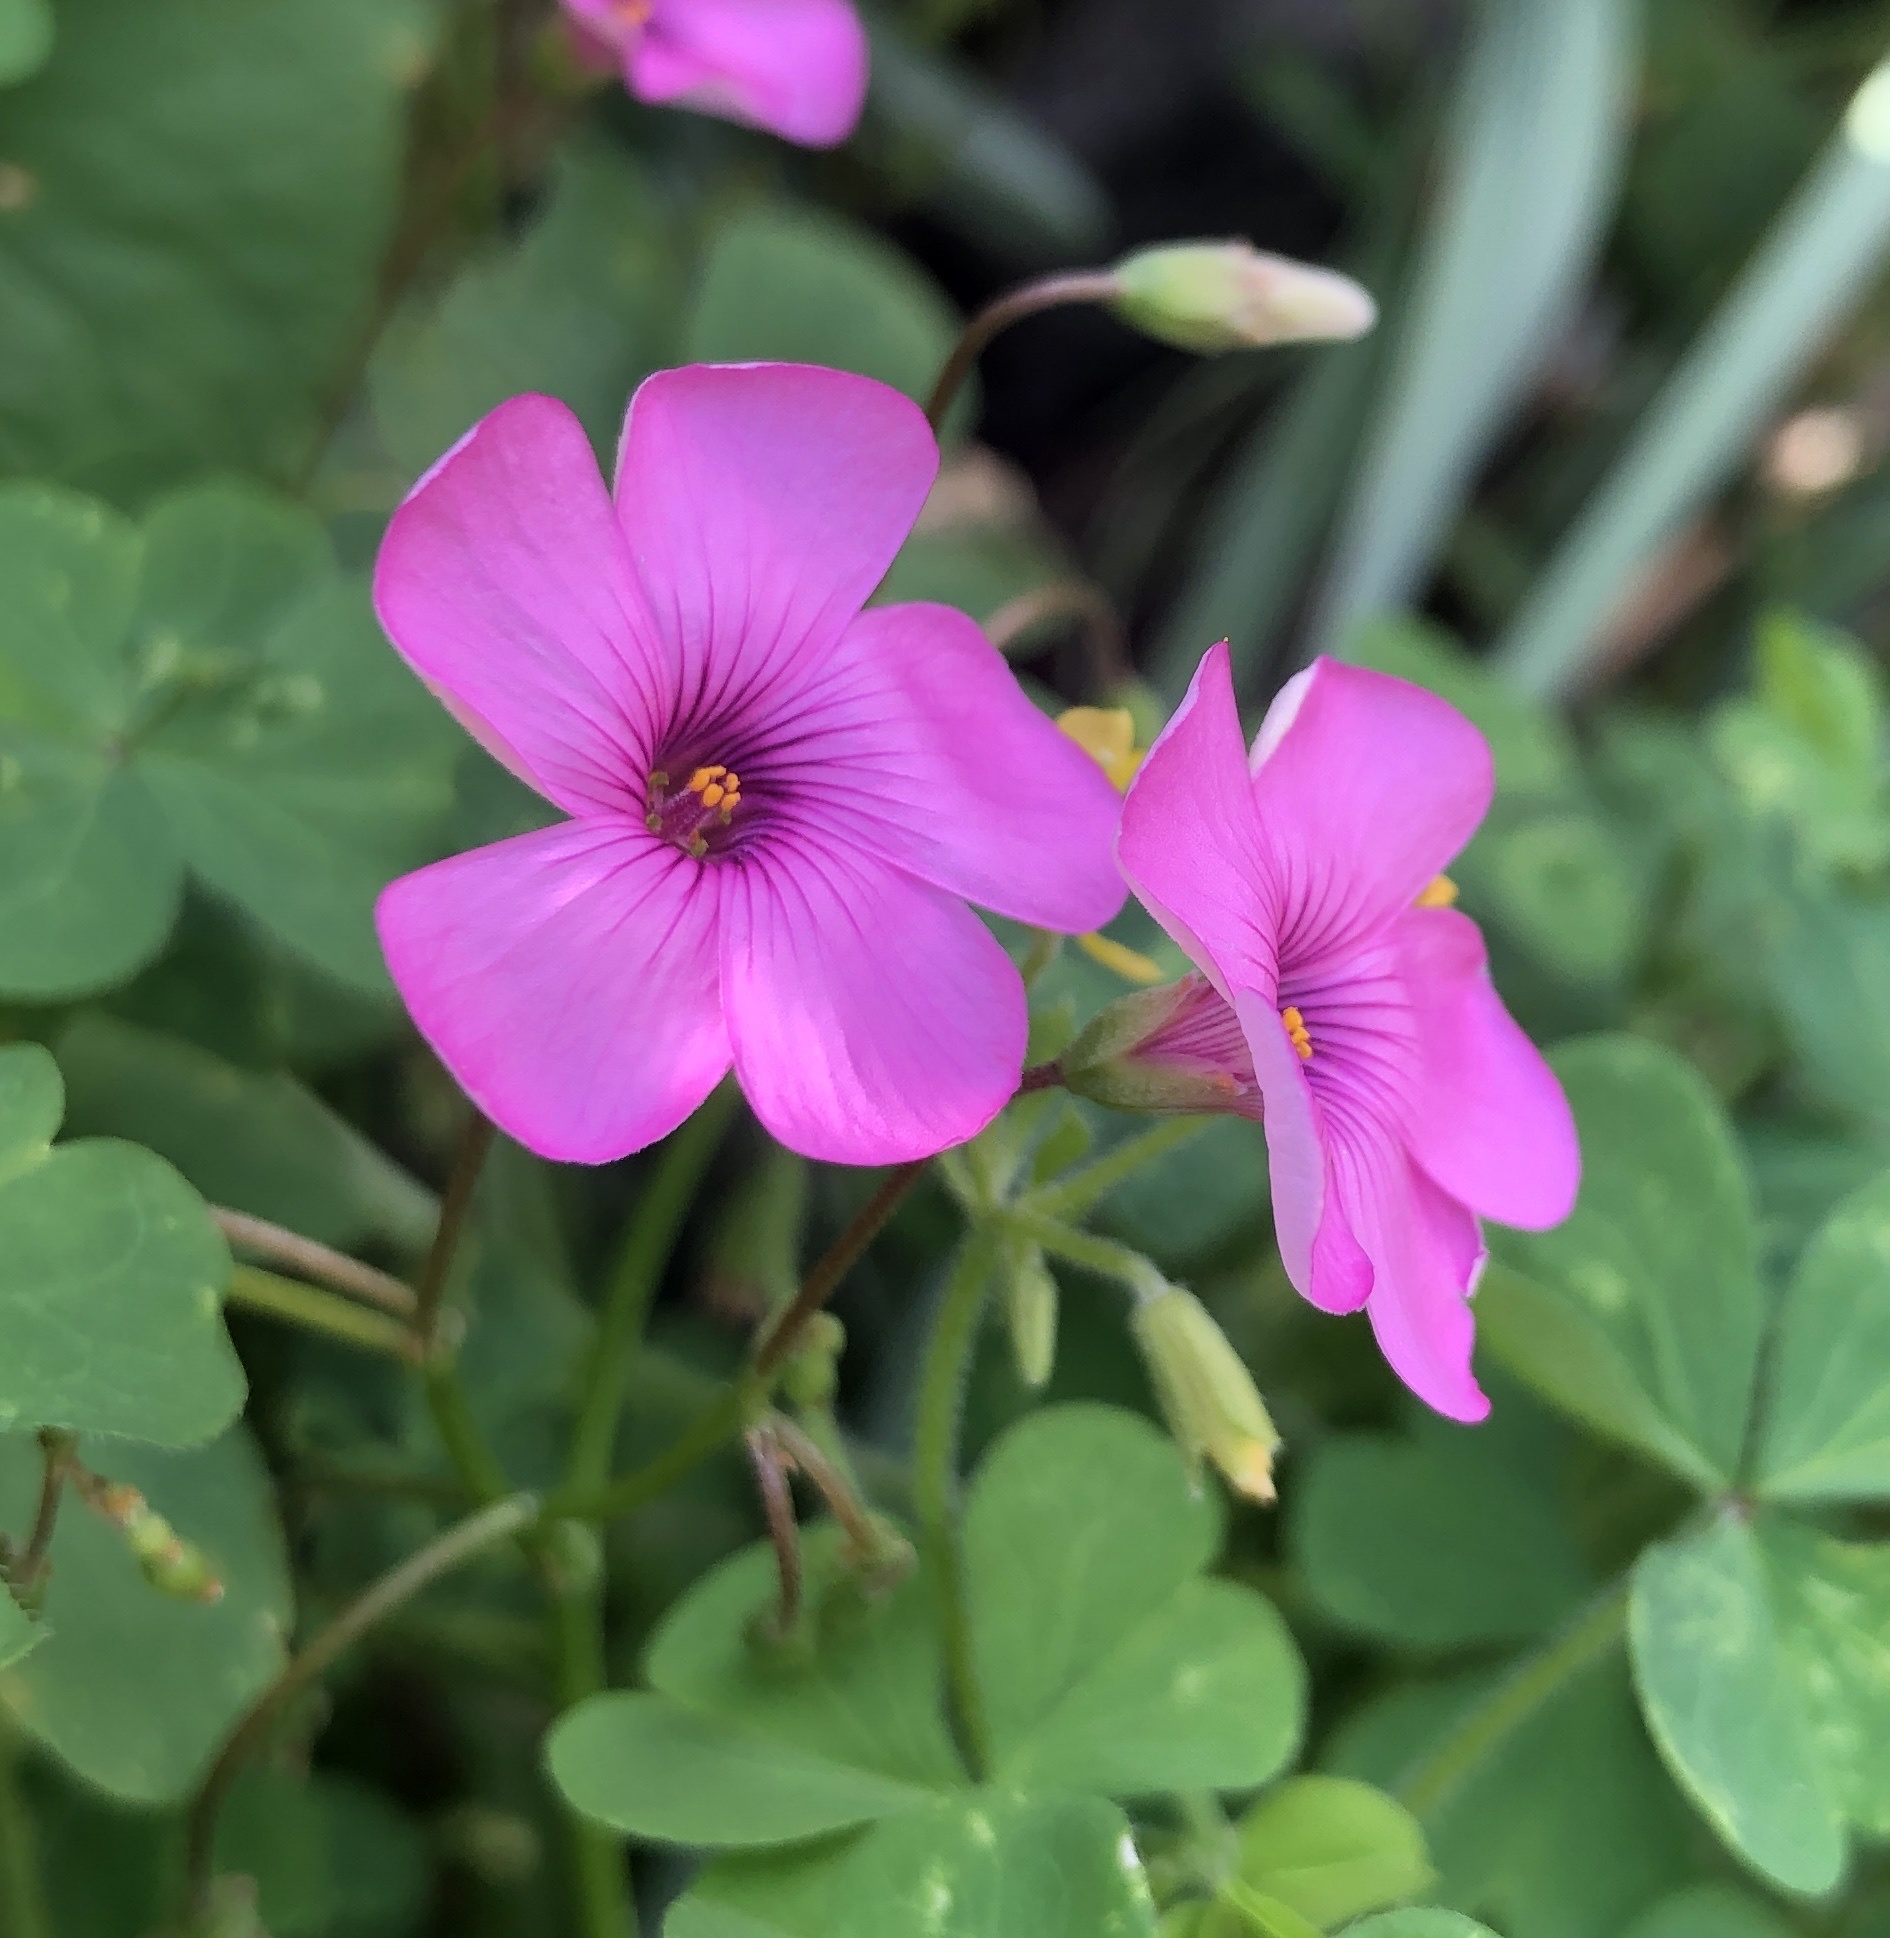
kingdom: Plantae
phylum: Tracheophyta
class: Magnoliopsida
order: Oxalidales
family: Oxalidaceae
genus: Oxalis
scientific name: Oxalis articulata
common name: Pink-sorrel
